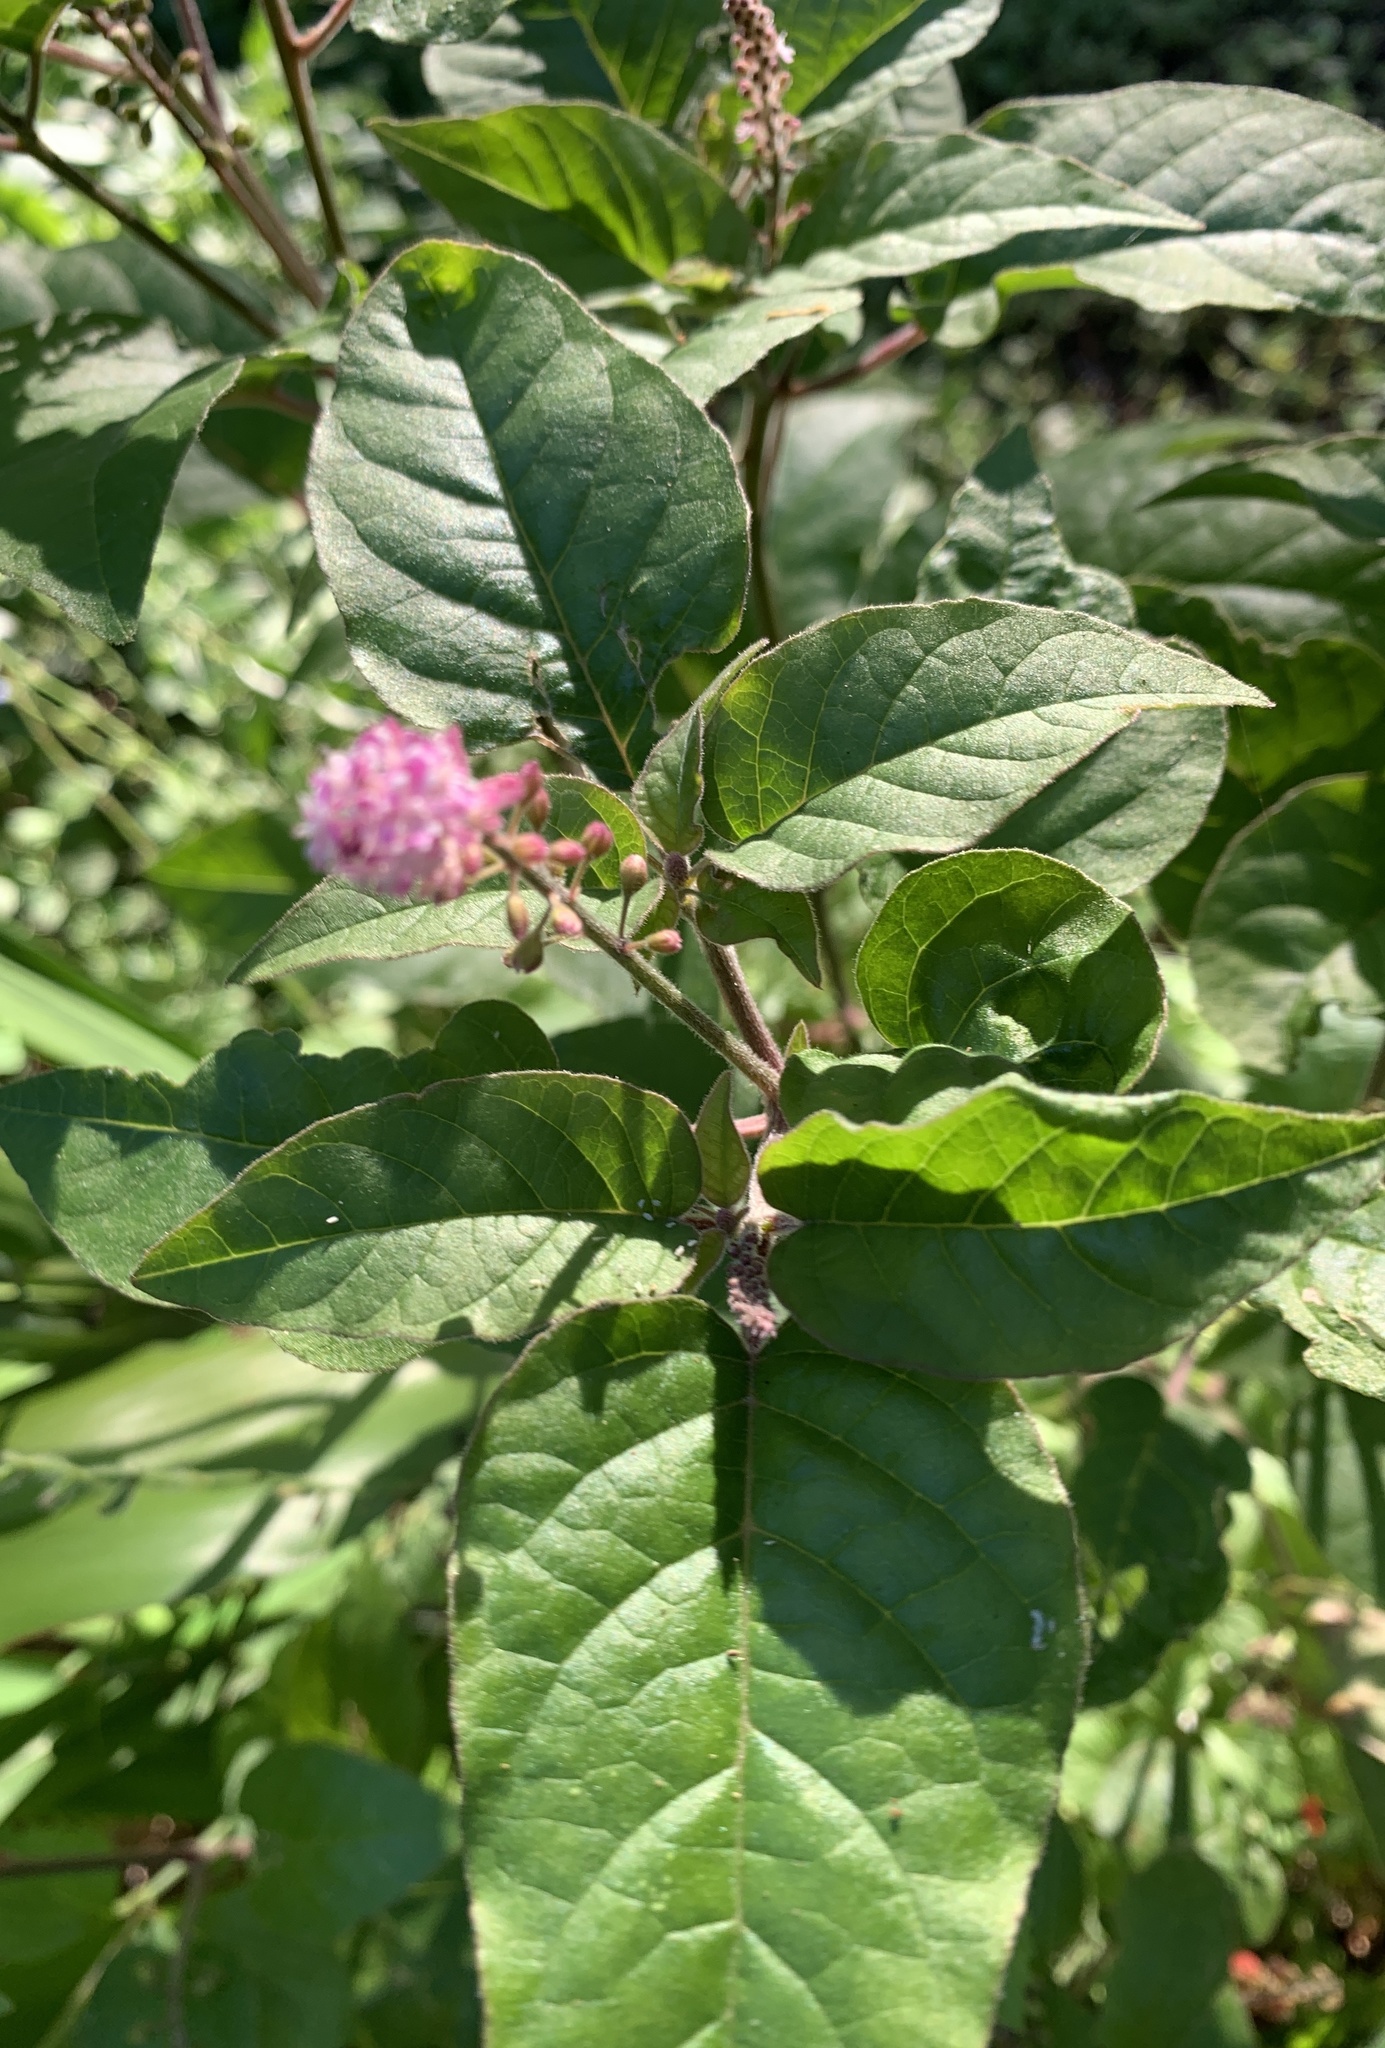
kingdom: Plantae
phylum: Tracheophyta
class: Magnoliopsida
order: Caryophyllales
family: Phytolaccaceae
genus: Rivina
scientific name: Rivina humilis
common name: Rougeplant
